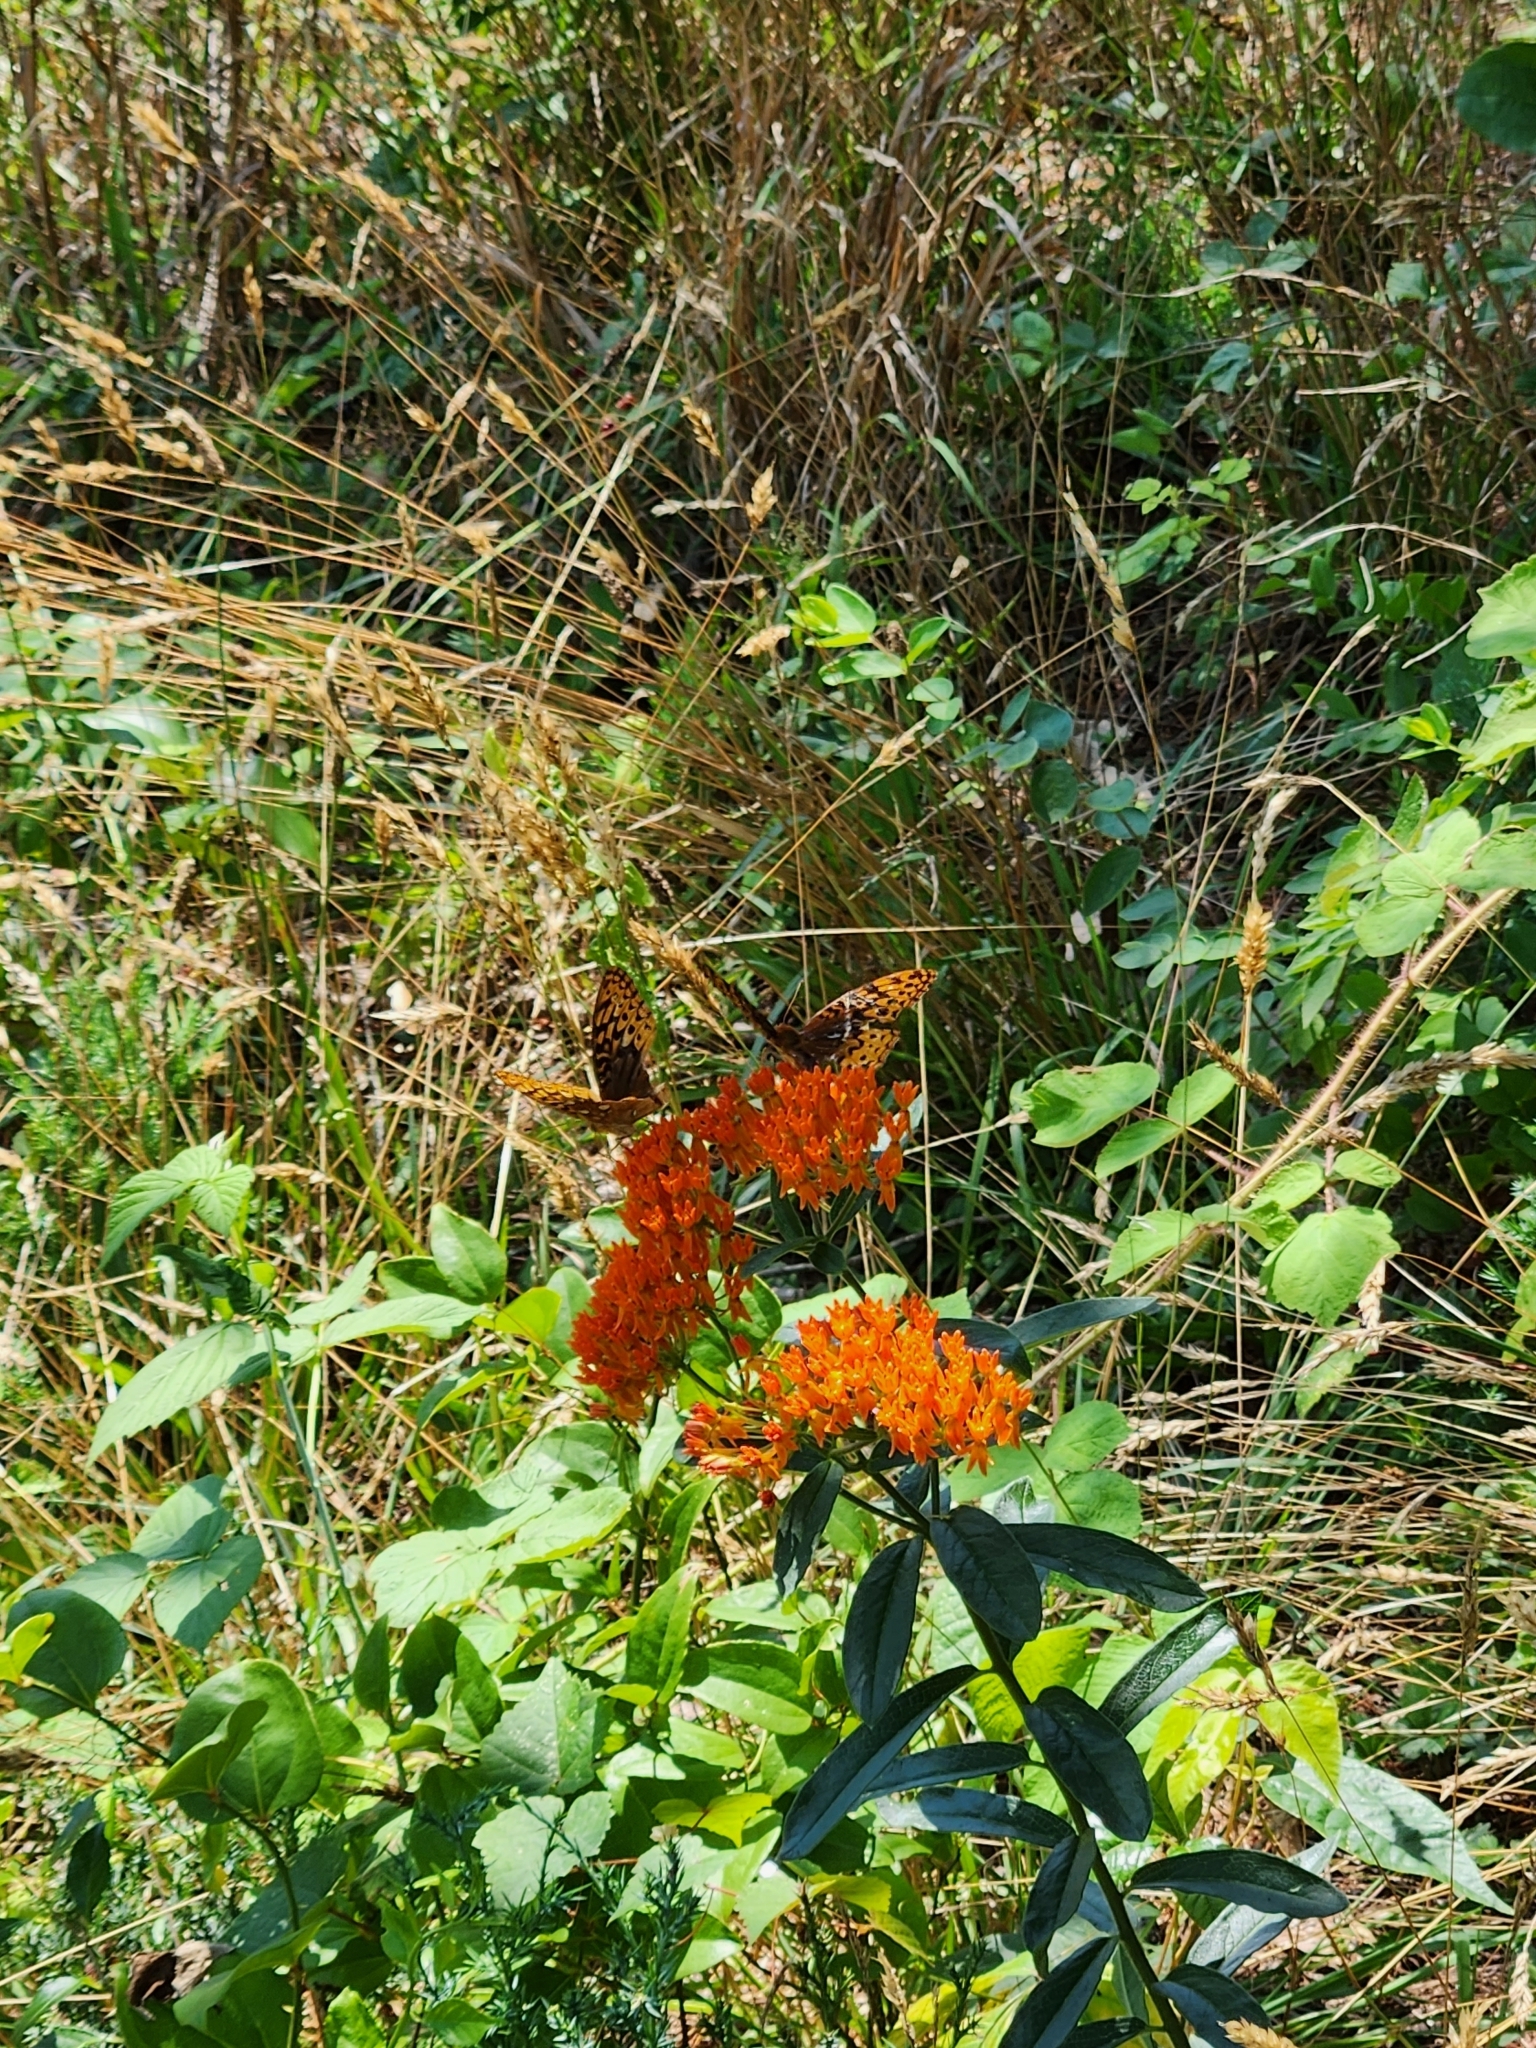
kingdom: Animalia
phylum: Arthropoda
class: Insecta
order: Lepidoptera
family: Nymphalidae
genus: Speyeria
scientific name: Speyeria cybele
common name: Great spangled fritillary
